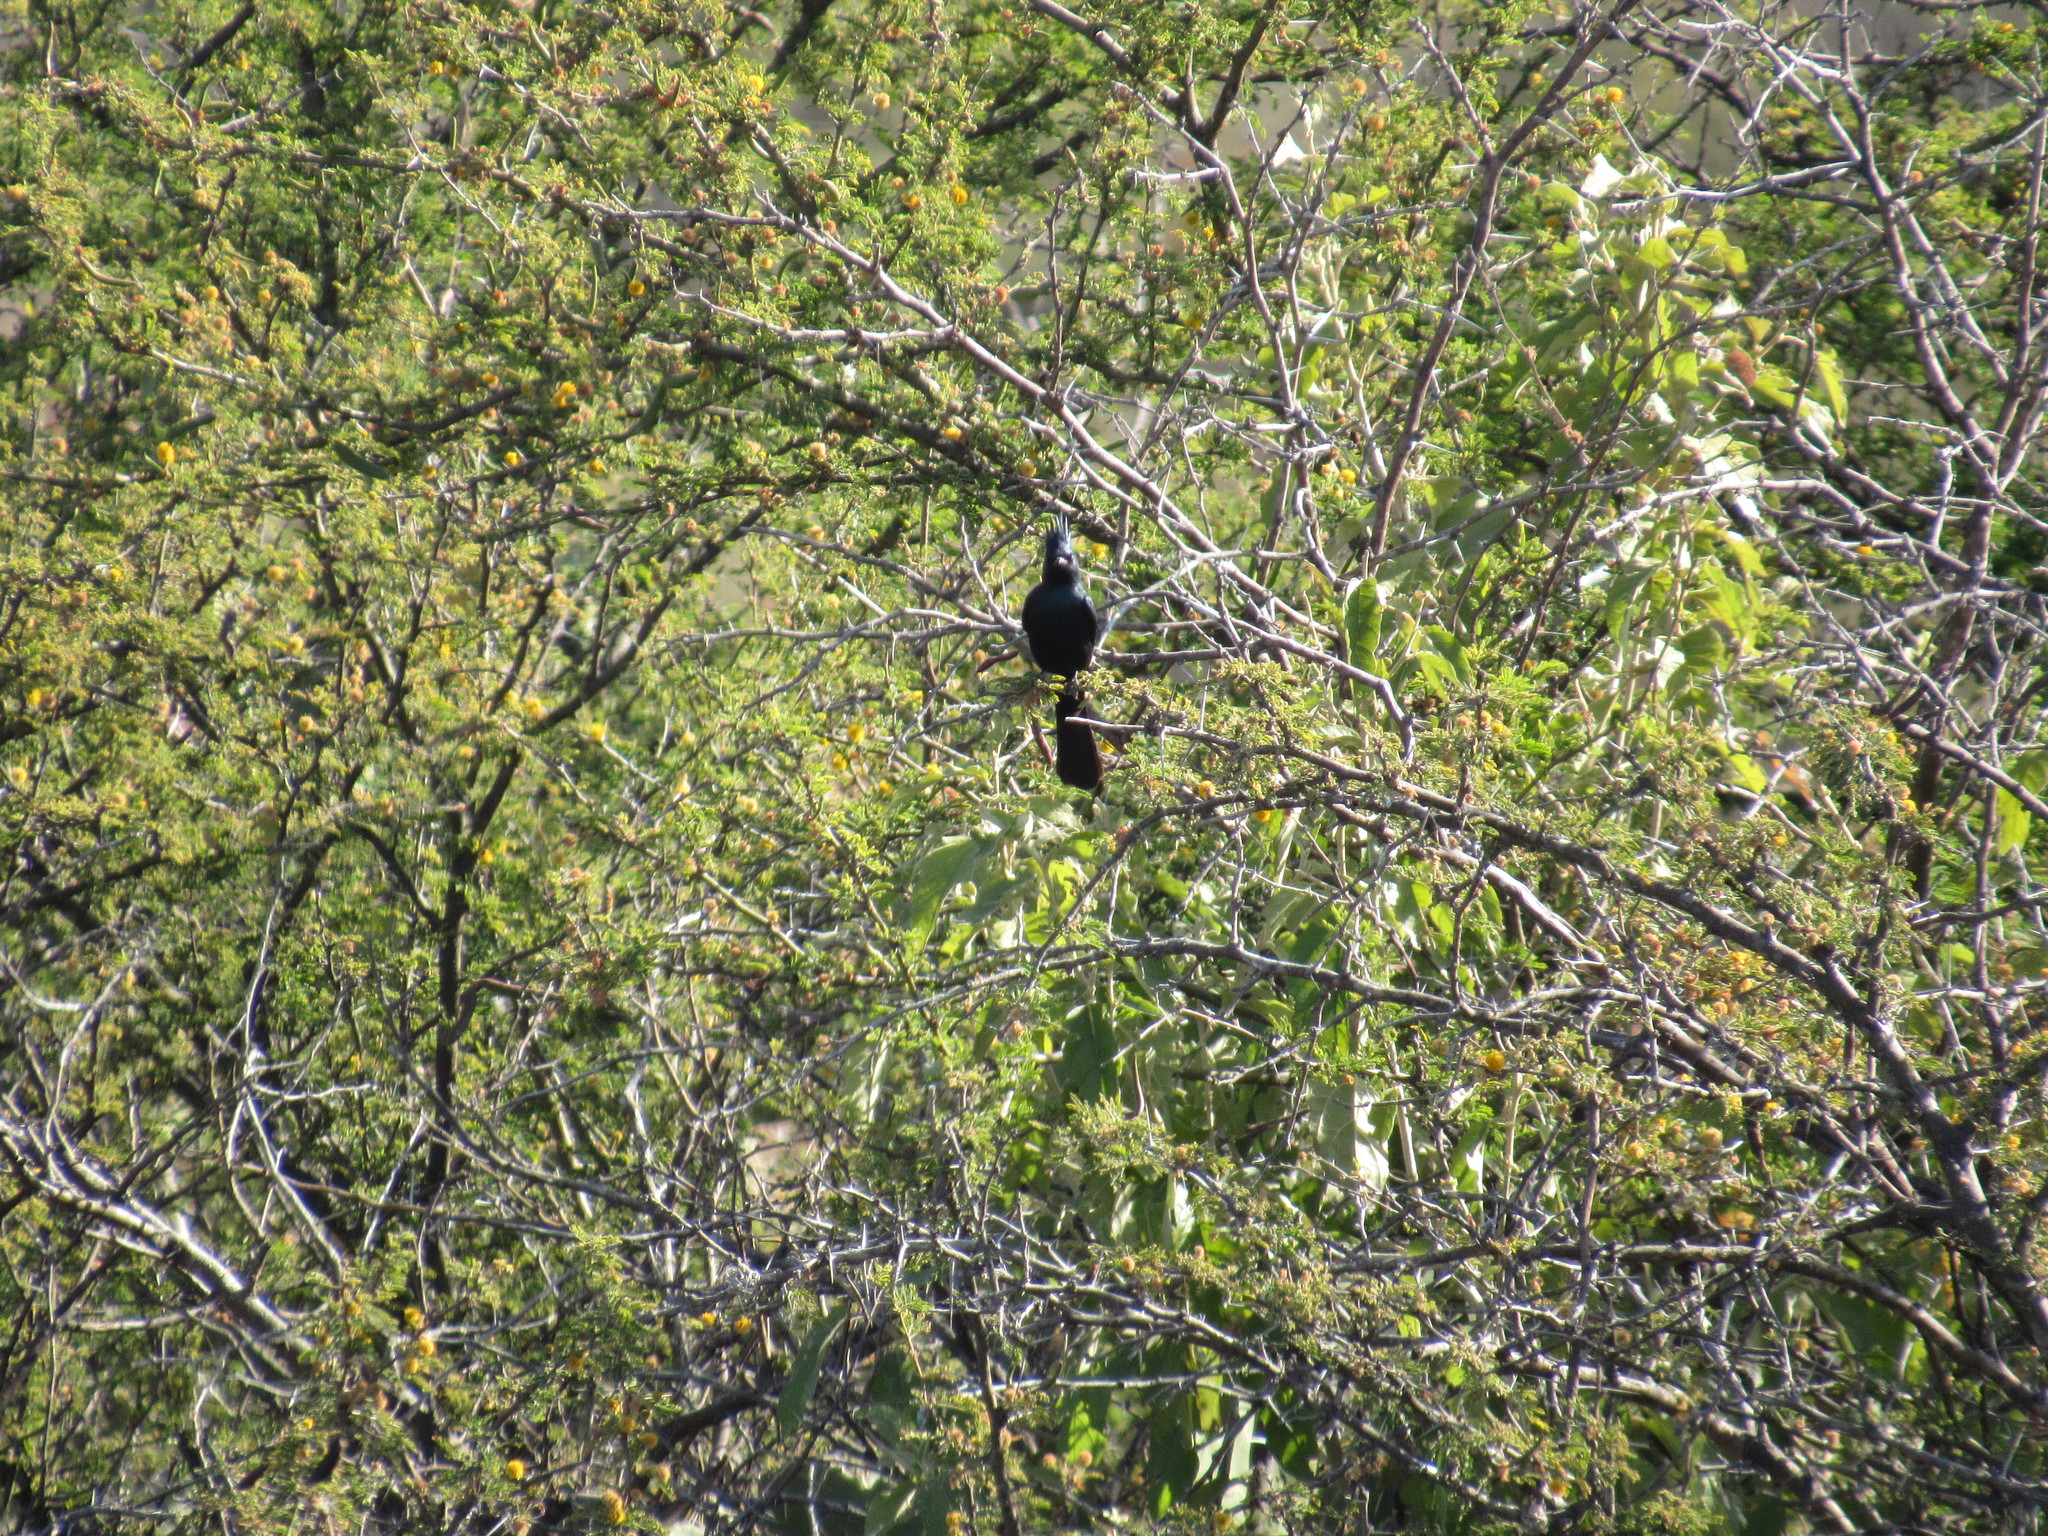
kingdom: Animalia
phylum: Chordata
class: Aves
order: Passeriformes
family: Ptilogonatidae
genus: Phainopepla
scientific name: Phainopepla nitens
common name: Phainopepla
